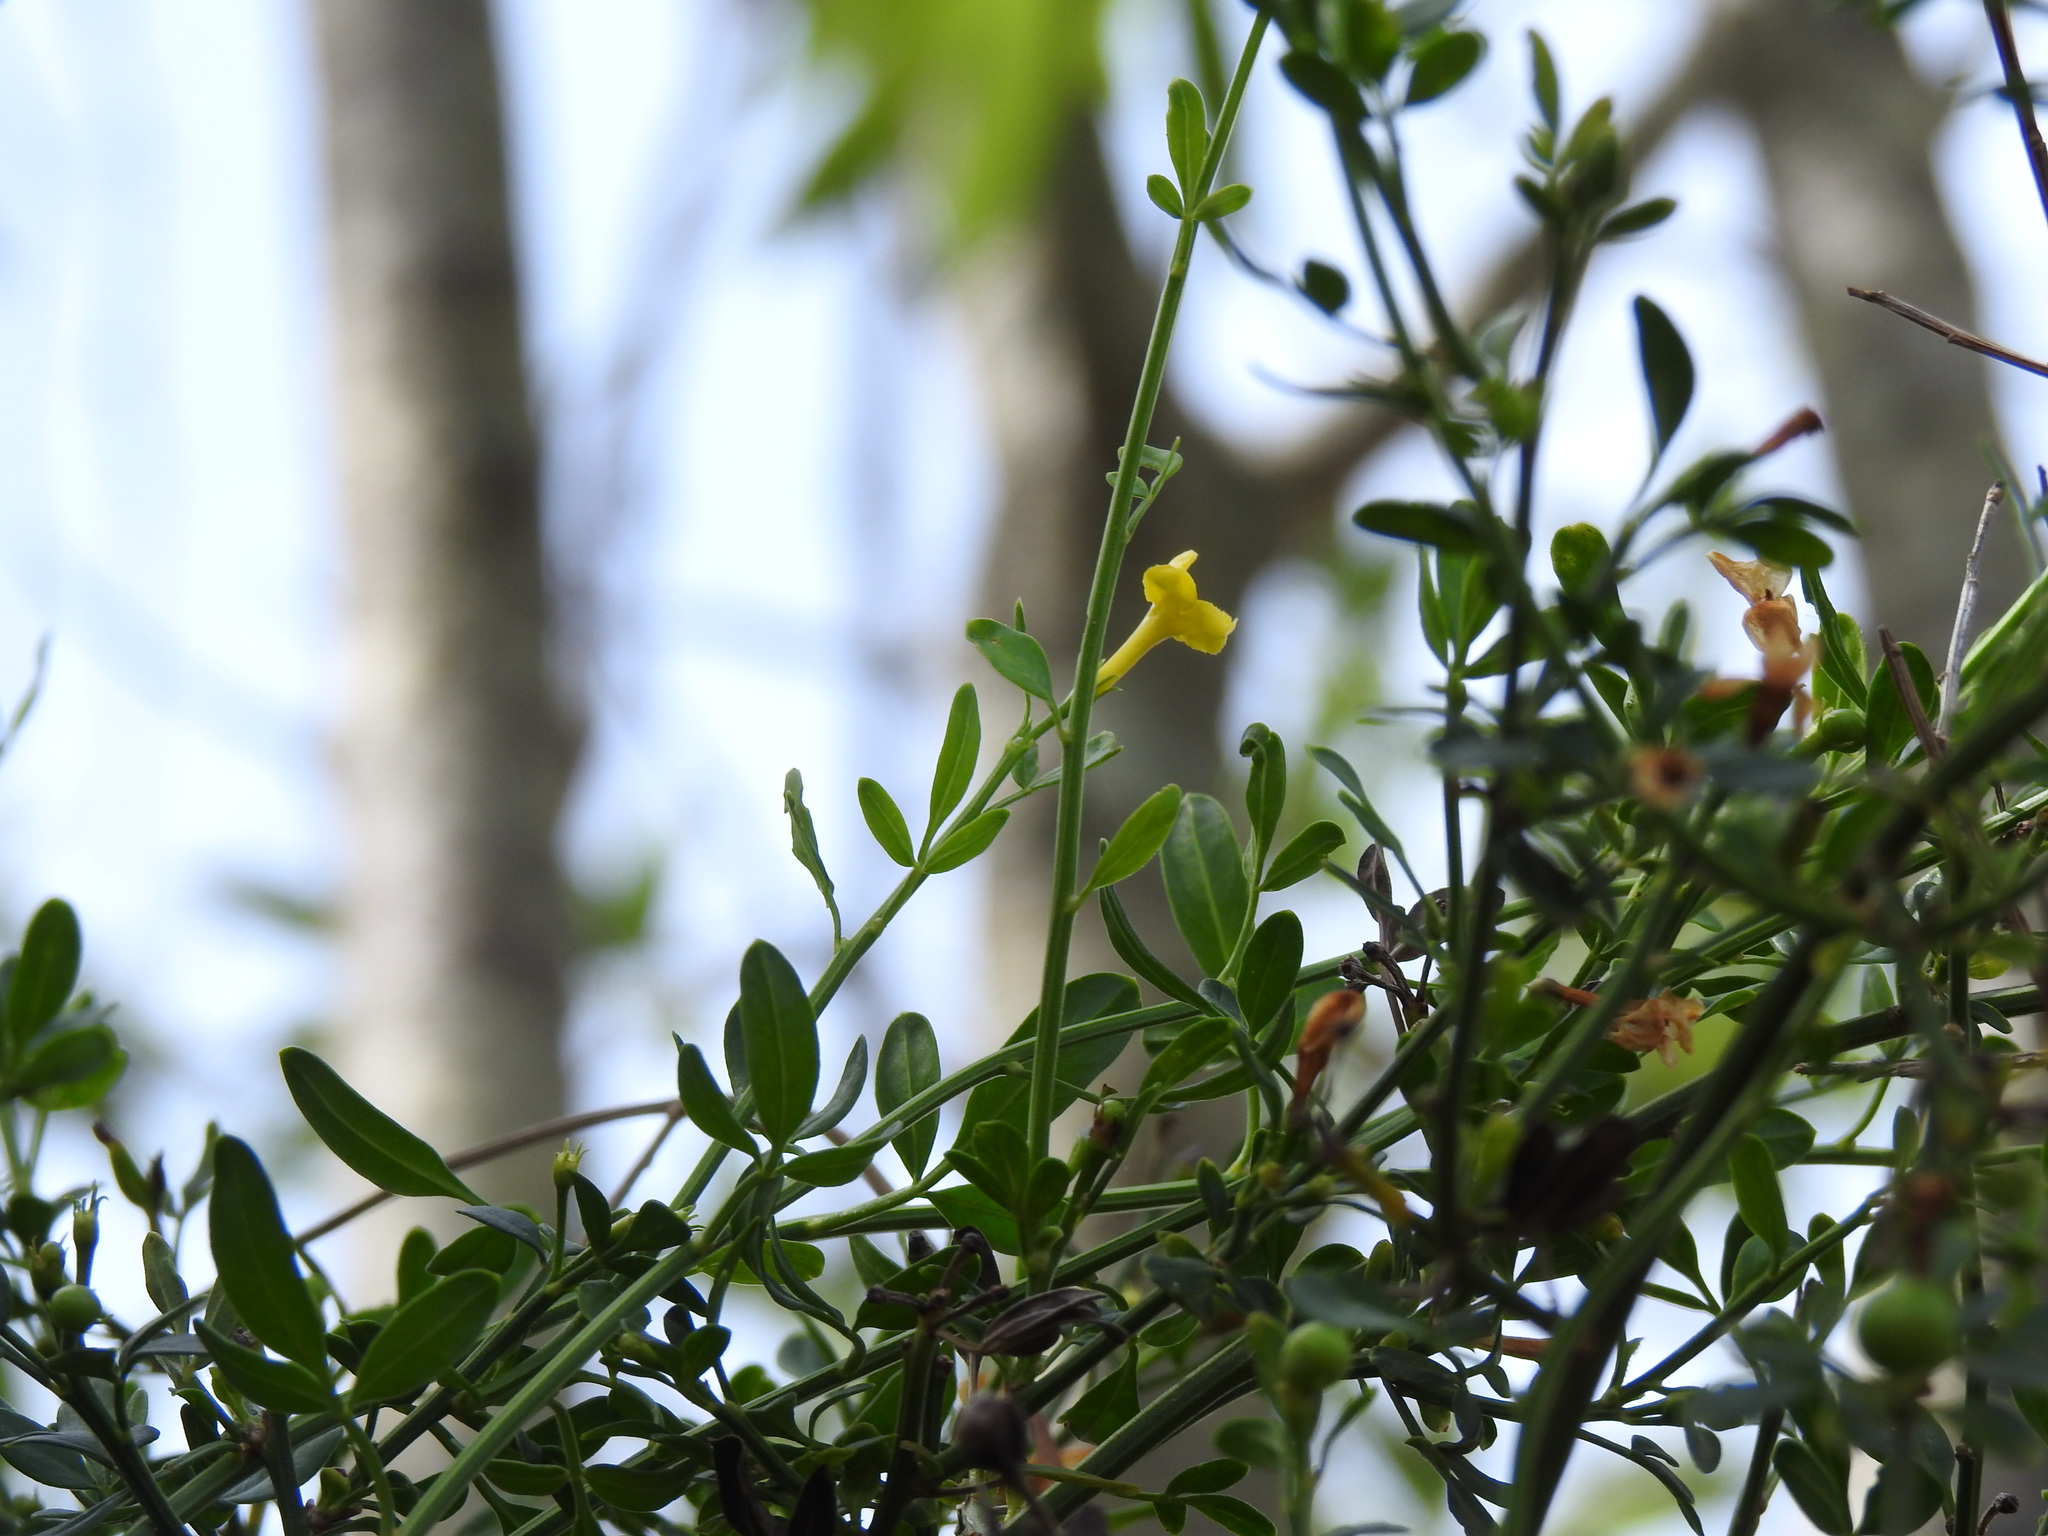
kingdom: Plantae
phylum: Tracheophyta
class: Magnoliopsida
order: Lamiales
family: Oleaceae
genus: Chrysojasminum
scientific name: Chrysojasminum fruticans
